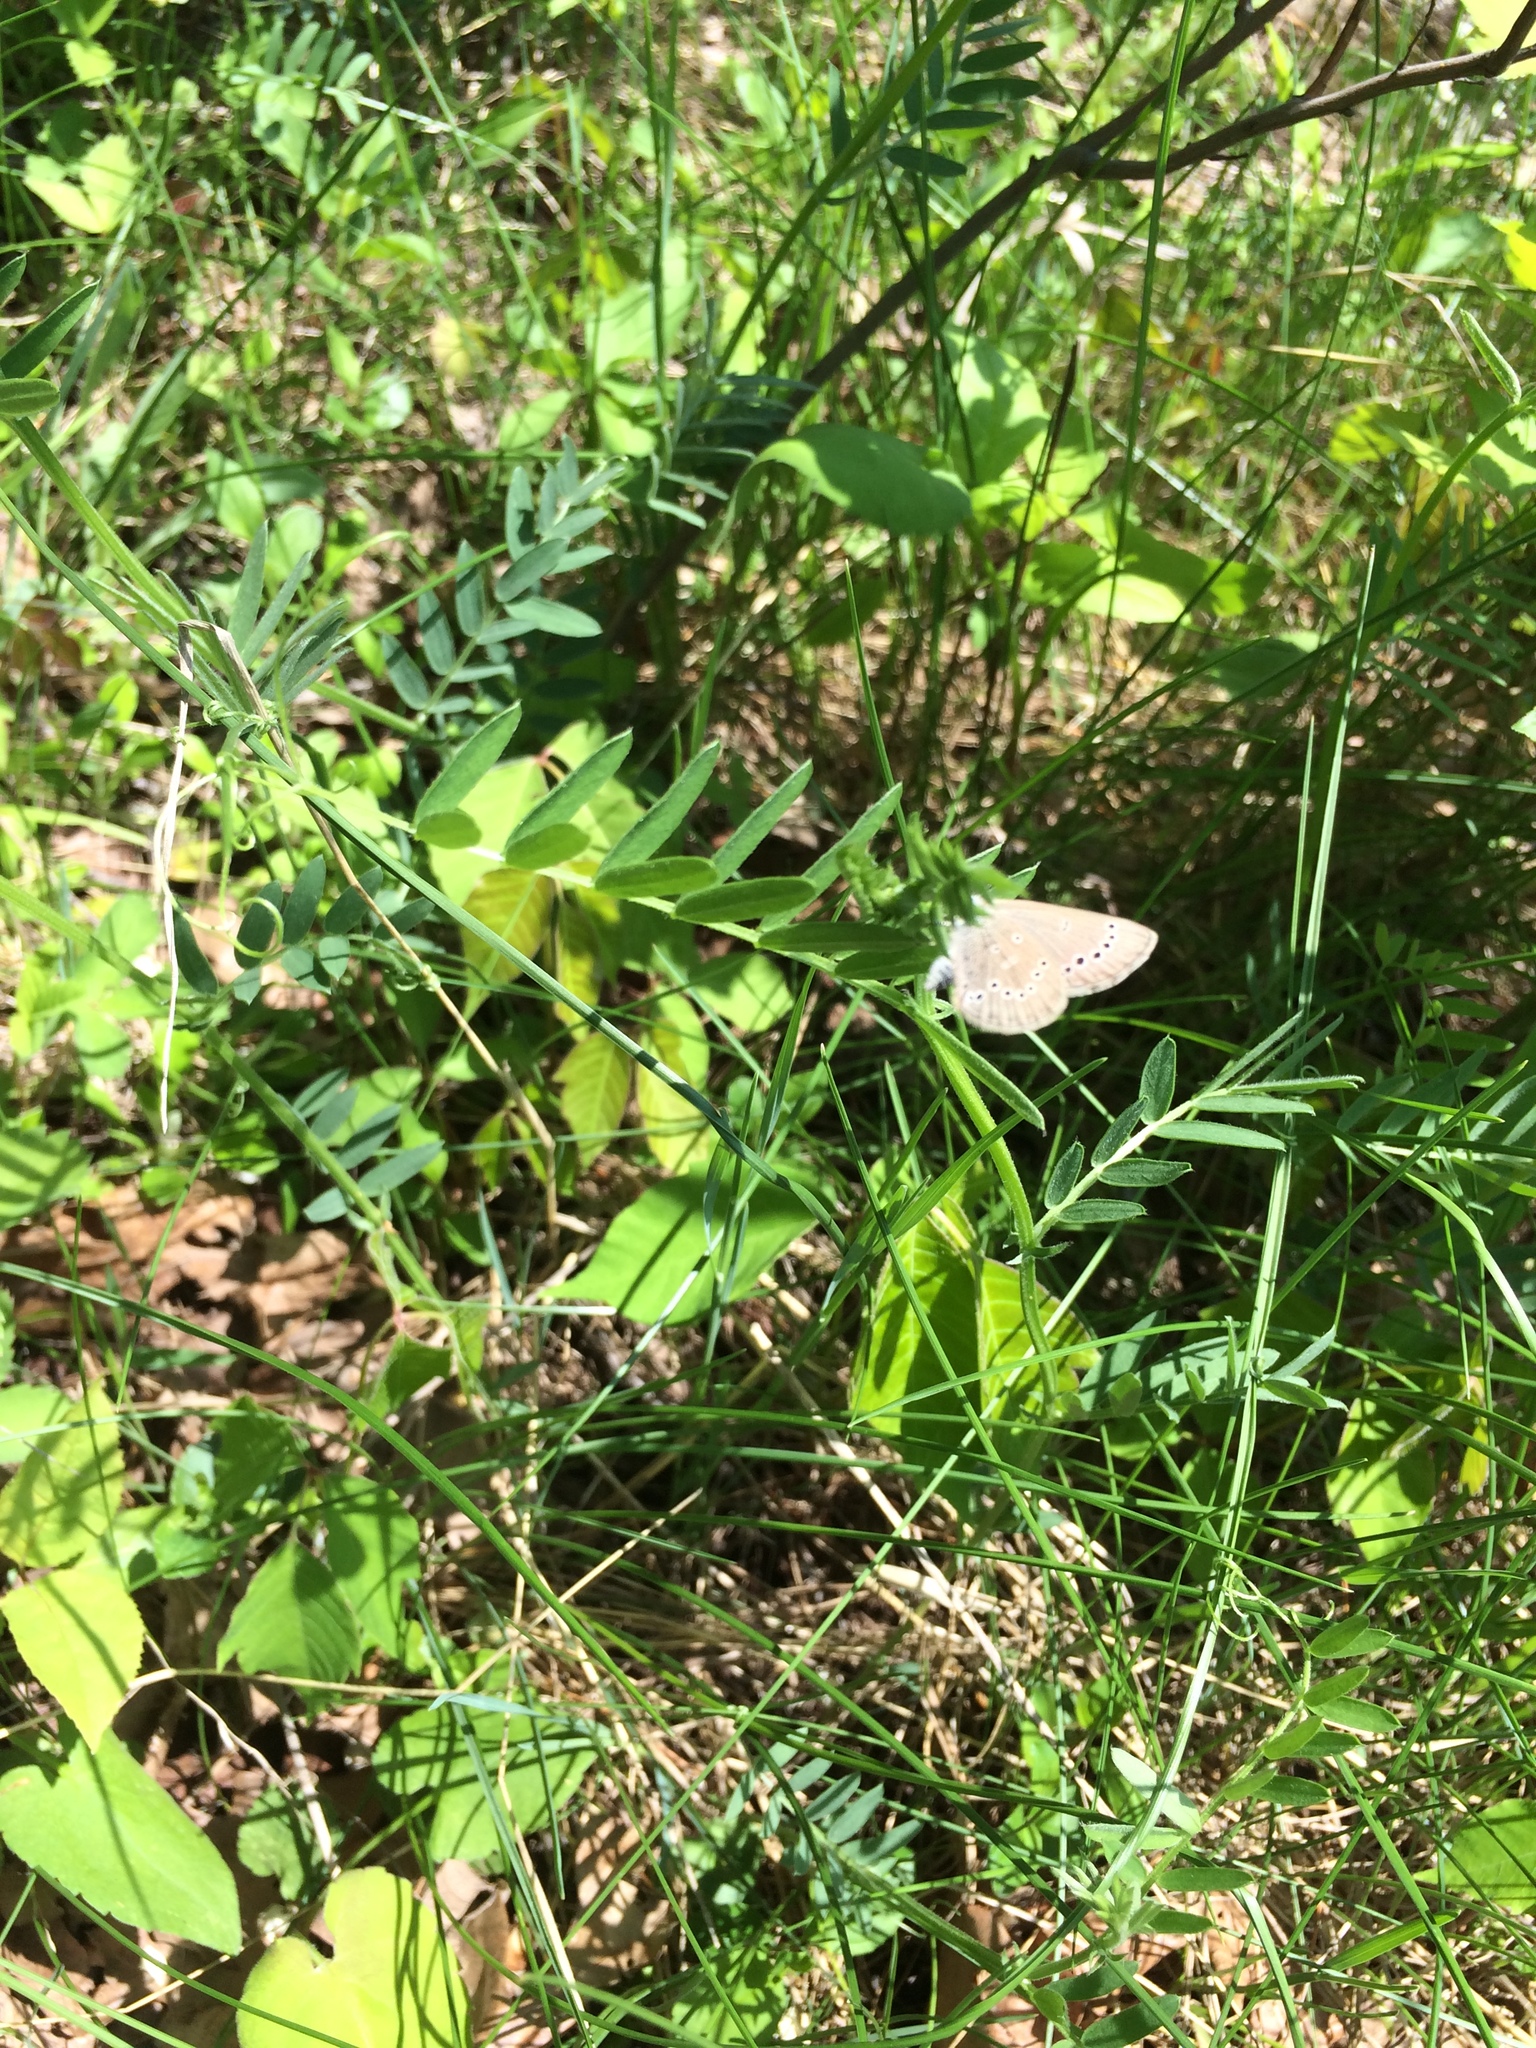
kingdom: Animalia
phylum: Arthropoda
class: Insecta
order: Lepidoptera
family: Lycaenidae
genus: Glaucopsyche
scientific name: Glaucopsyche lygdamus
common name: Silvery blue
